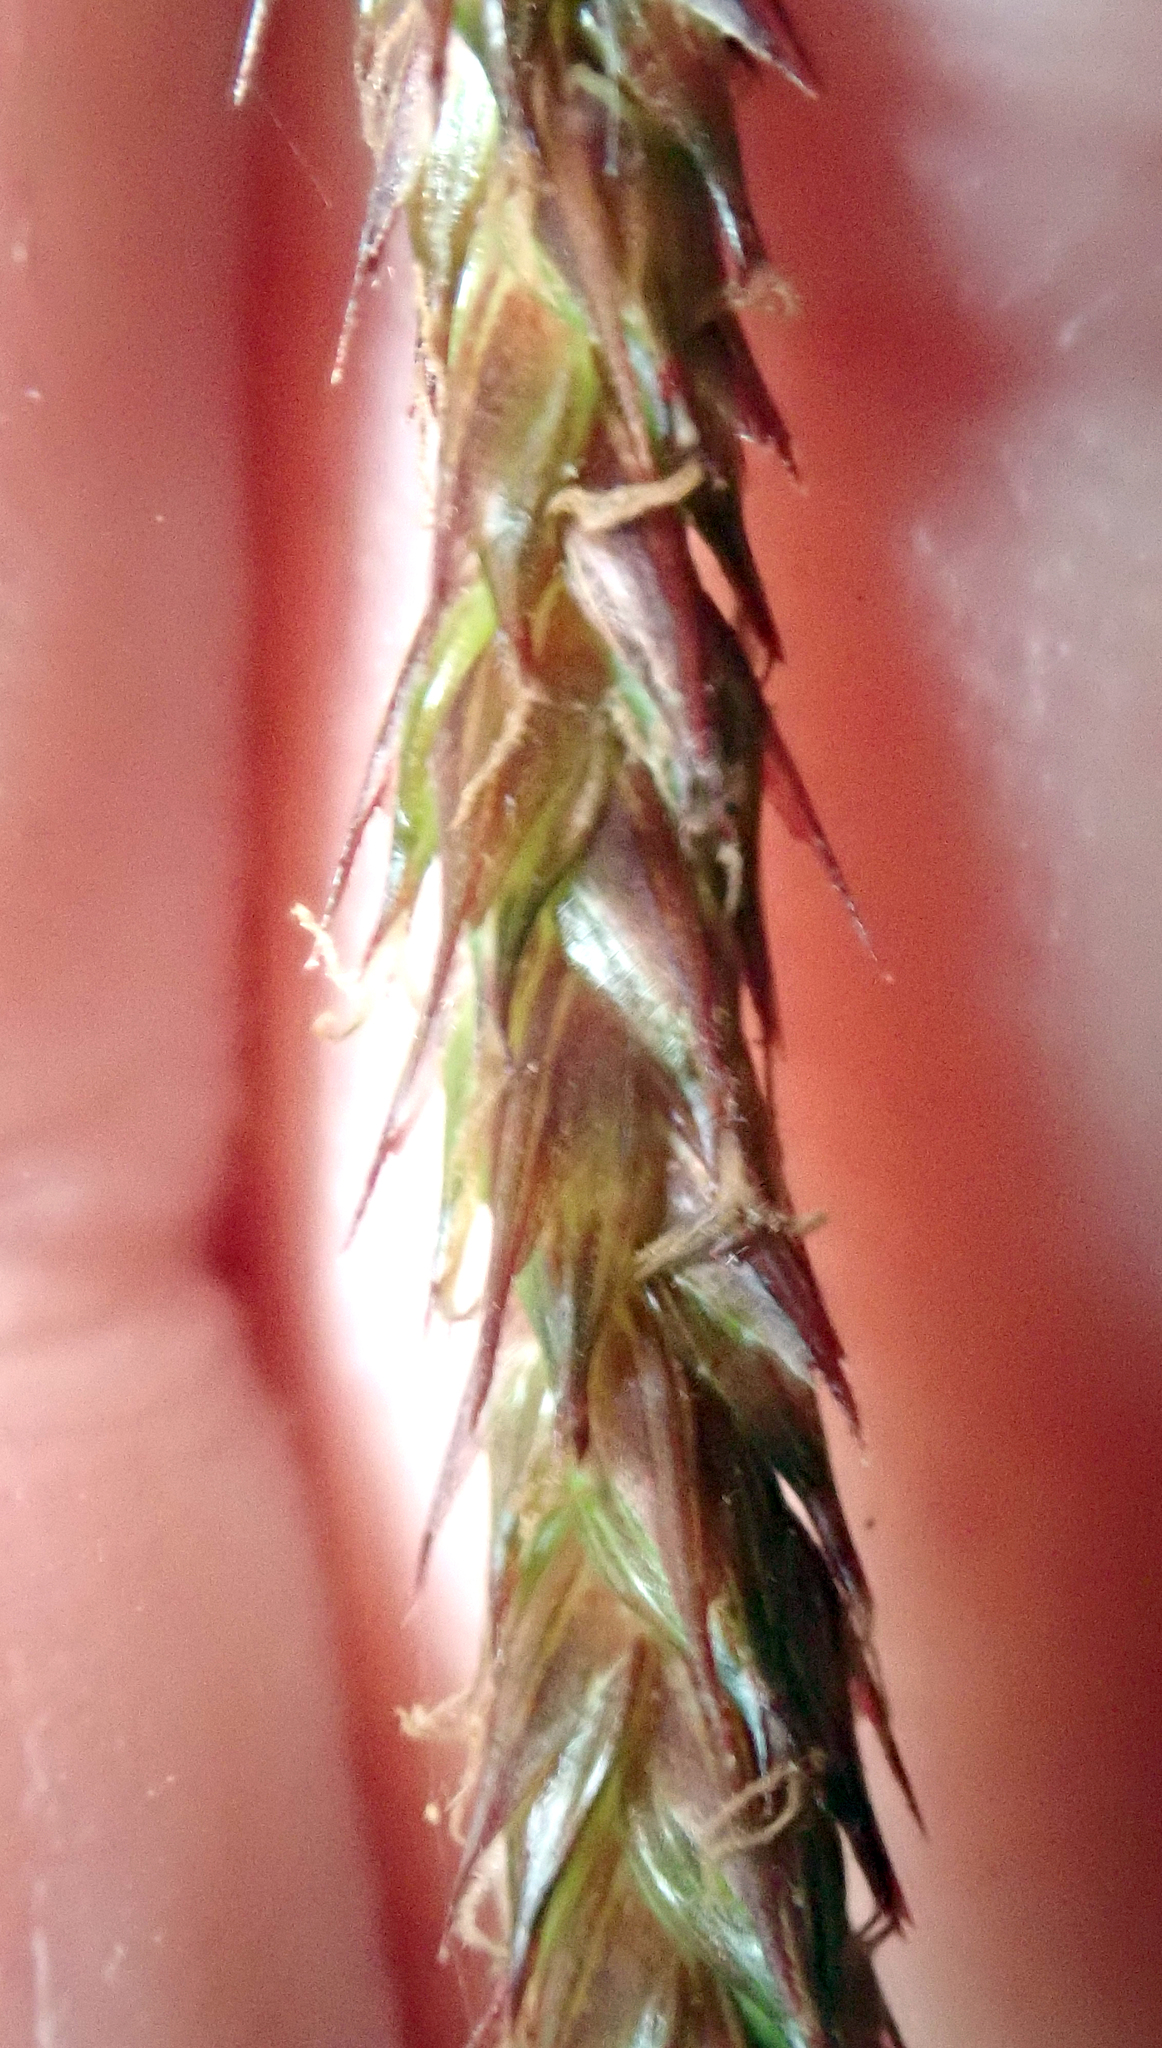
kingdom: Plantae
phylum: Tracheophyta
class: Liliopsida
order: Poales
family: Cyperaceae
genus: Carex
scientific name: Carex spinirostris
